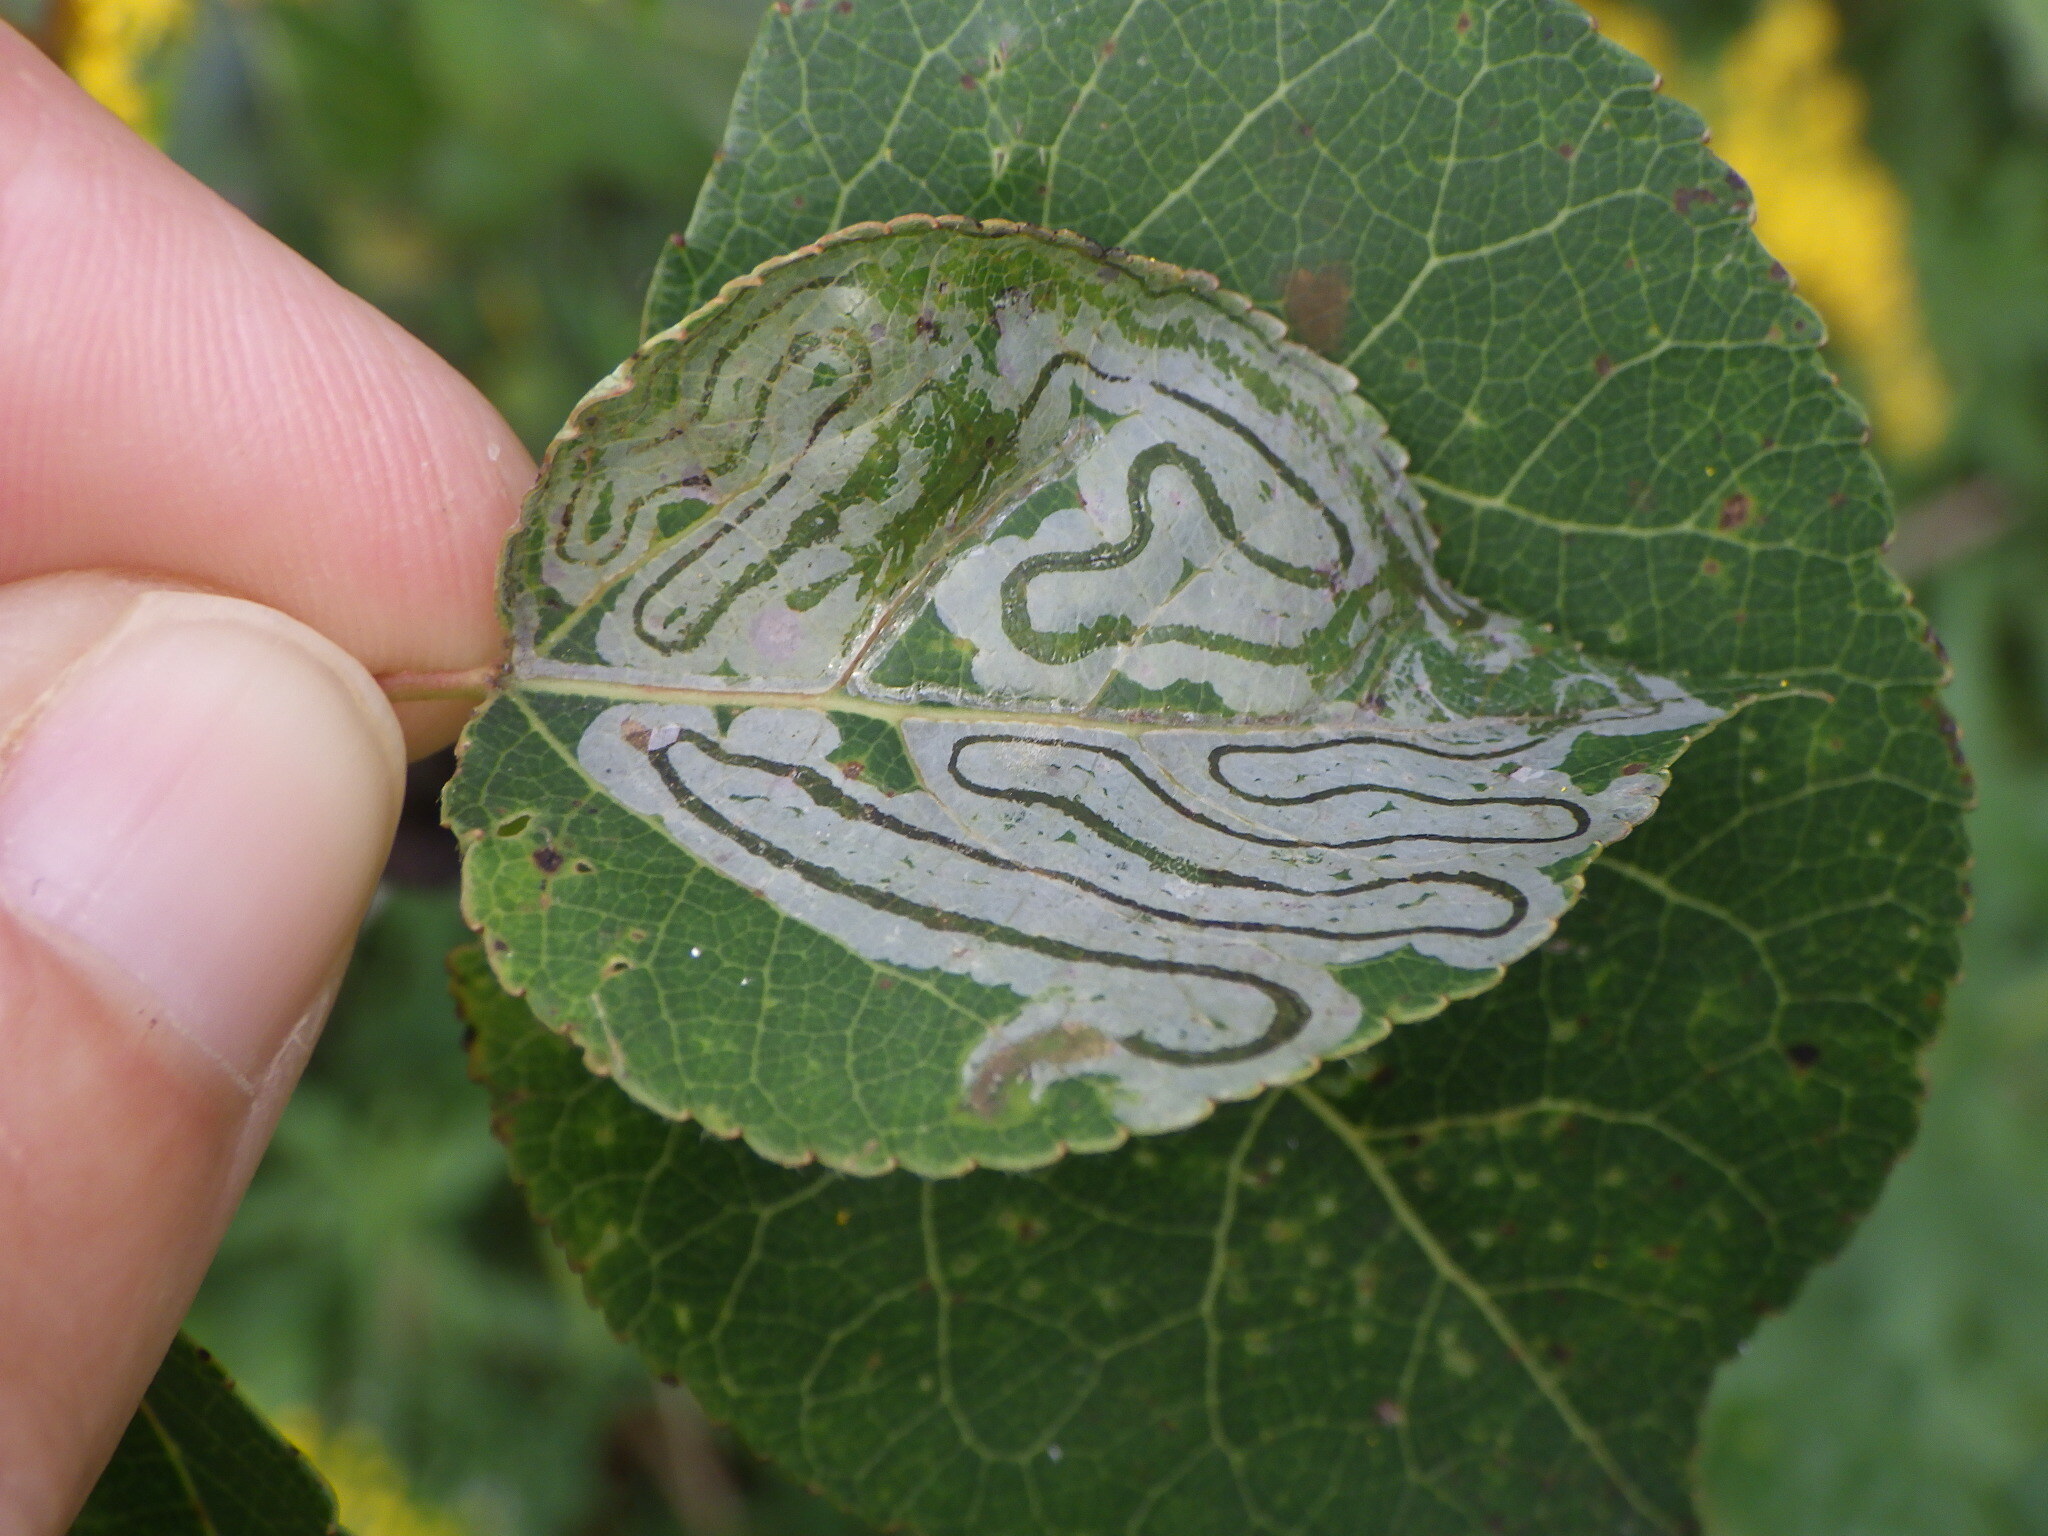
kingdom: Animalia
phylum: Arthropoda
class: Insecta
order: Lepidoptera
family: Gracillariidae
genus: Phyllocnistis
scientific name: Phyllocnistis populiella
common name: Aspen serpentine leafminer moth
